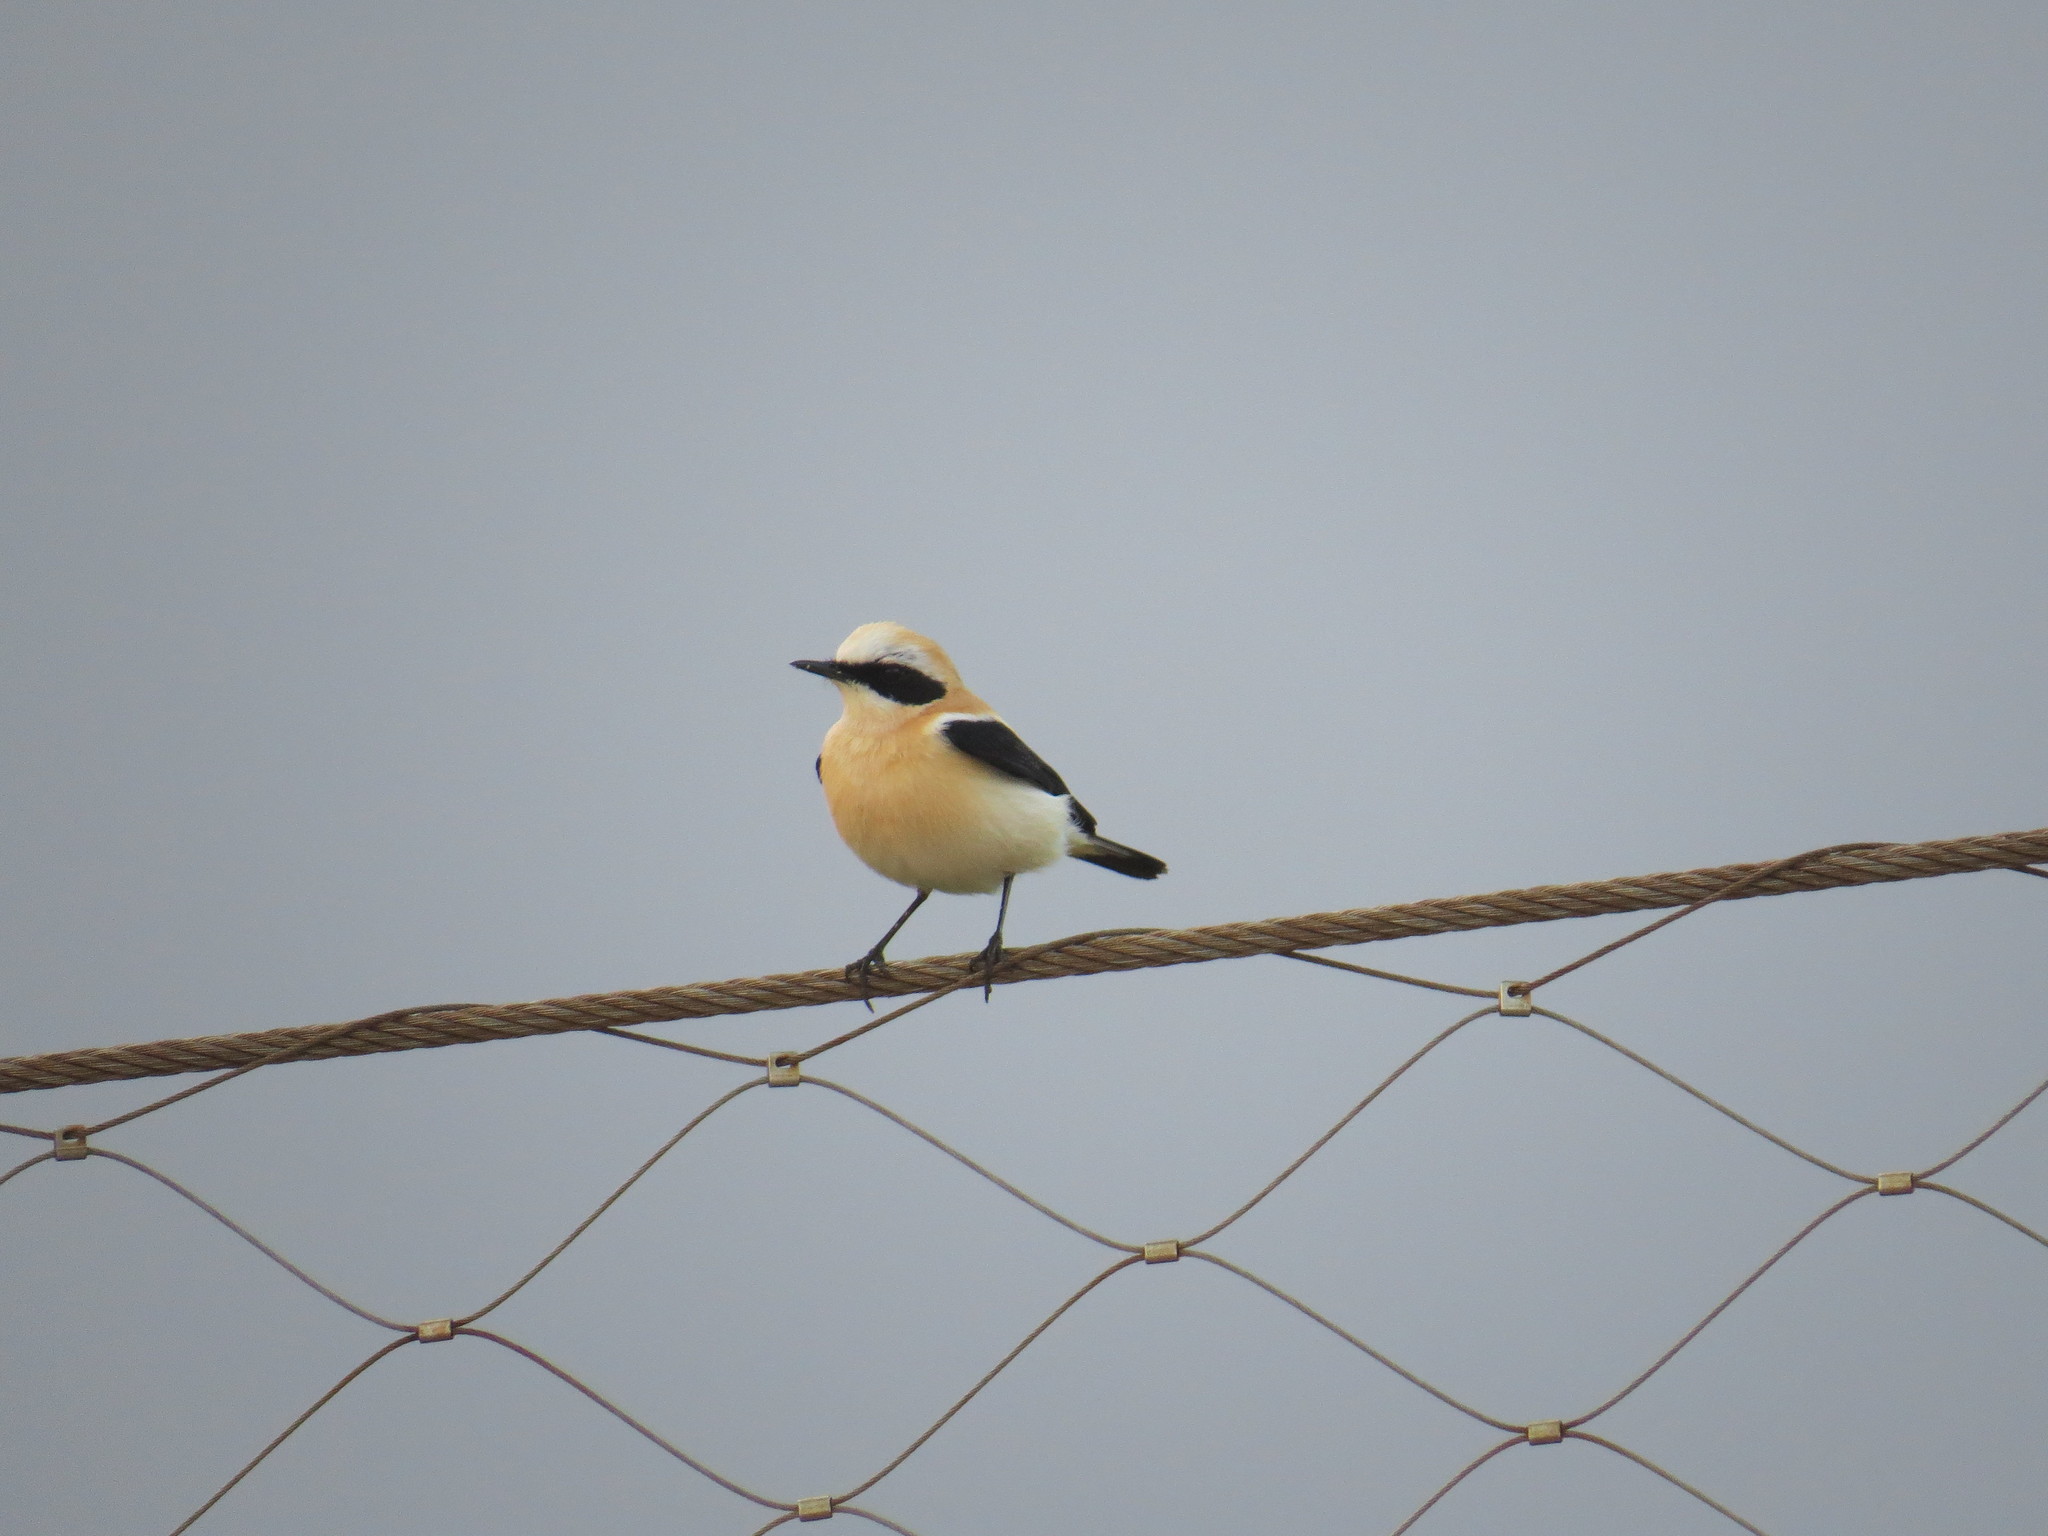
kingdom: Animalia
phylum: Chordata
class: Aves
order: Passeriformes
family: Muscicapidae
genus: Oenanthe
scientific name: Oenanthe hispanica
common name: Black-eared wheatear
